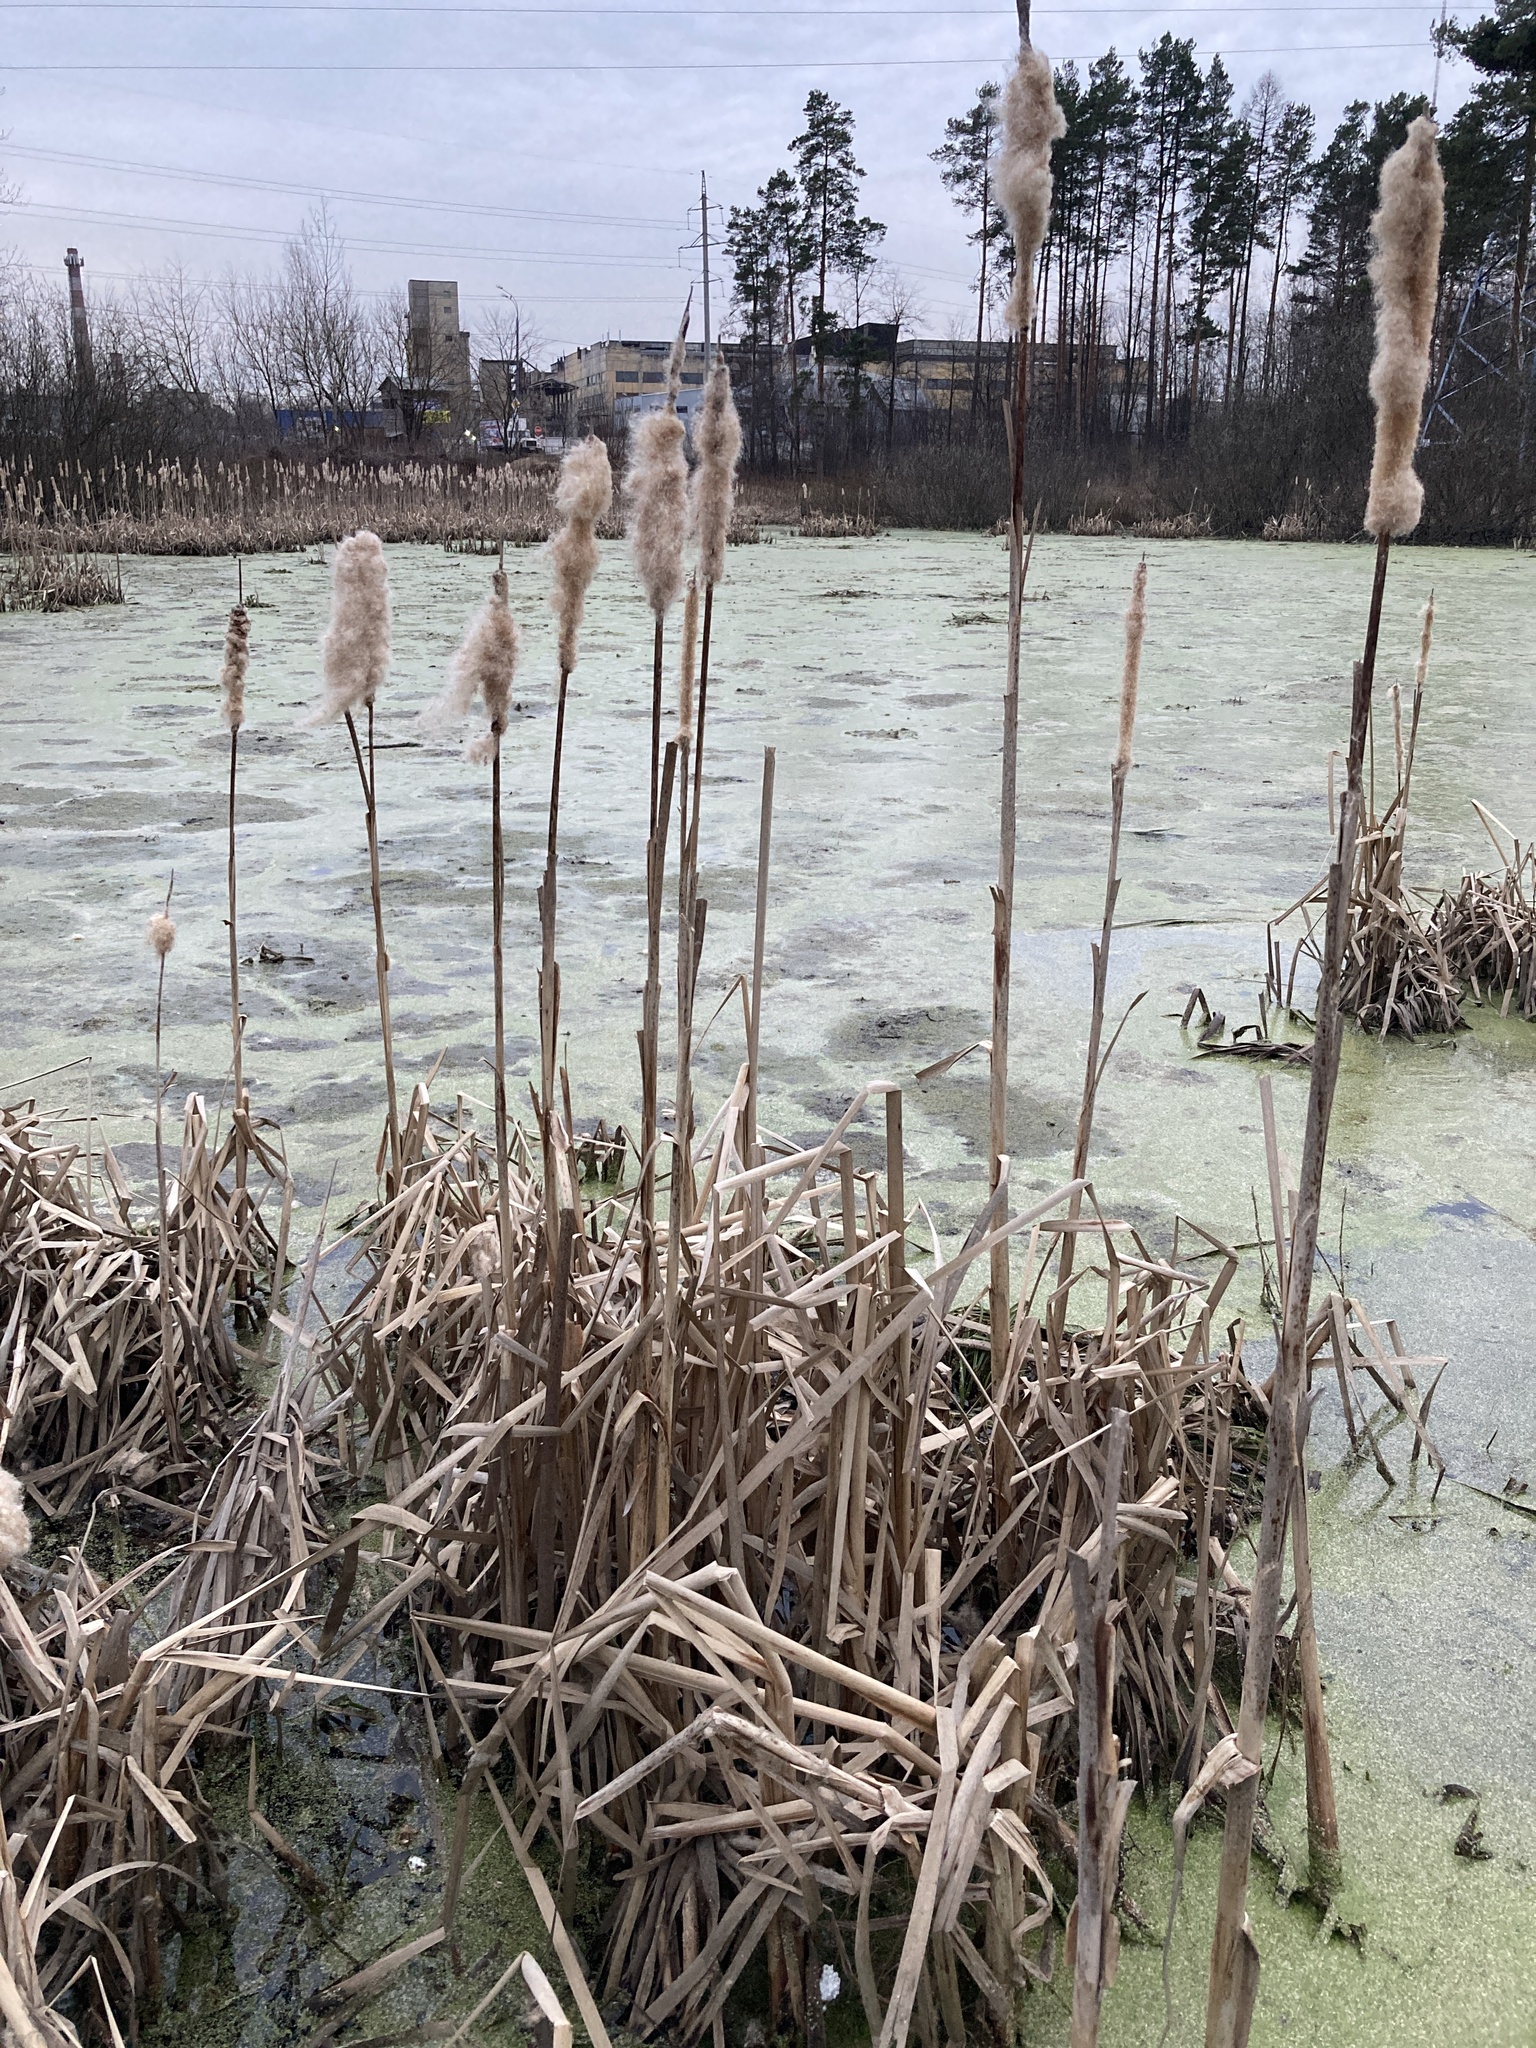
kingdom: Plantae
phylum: Tracheophyta
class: Liliopsida
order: Poales
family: Typhaceae
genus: Typha
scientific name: Typha latifolia
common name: Broadleaf cattail
